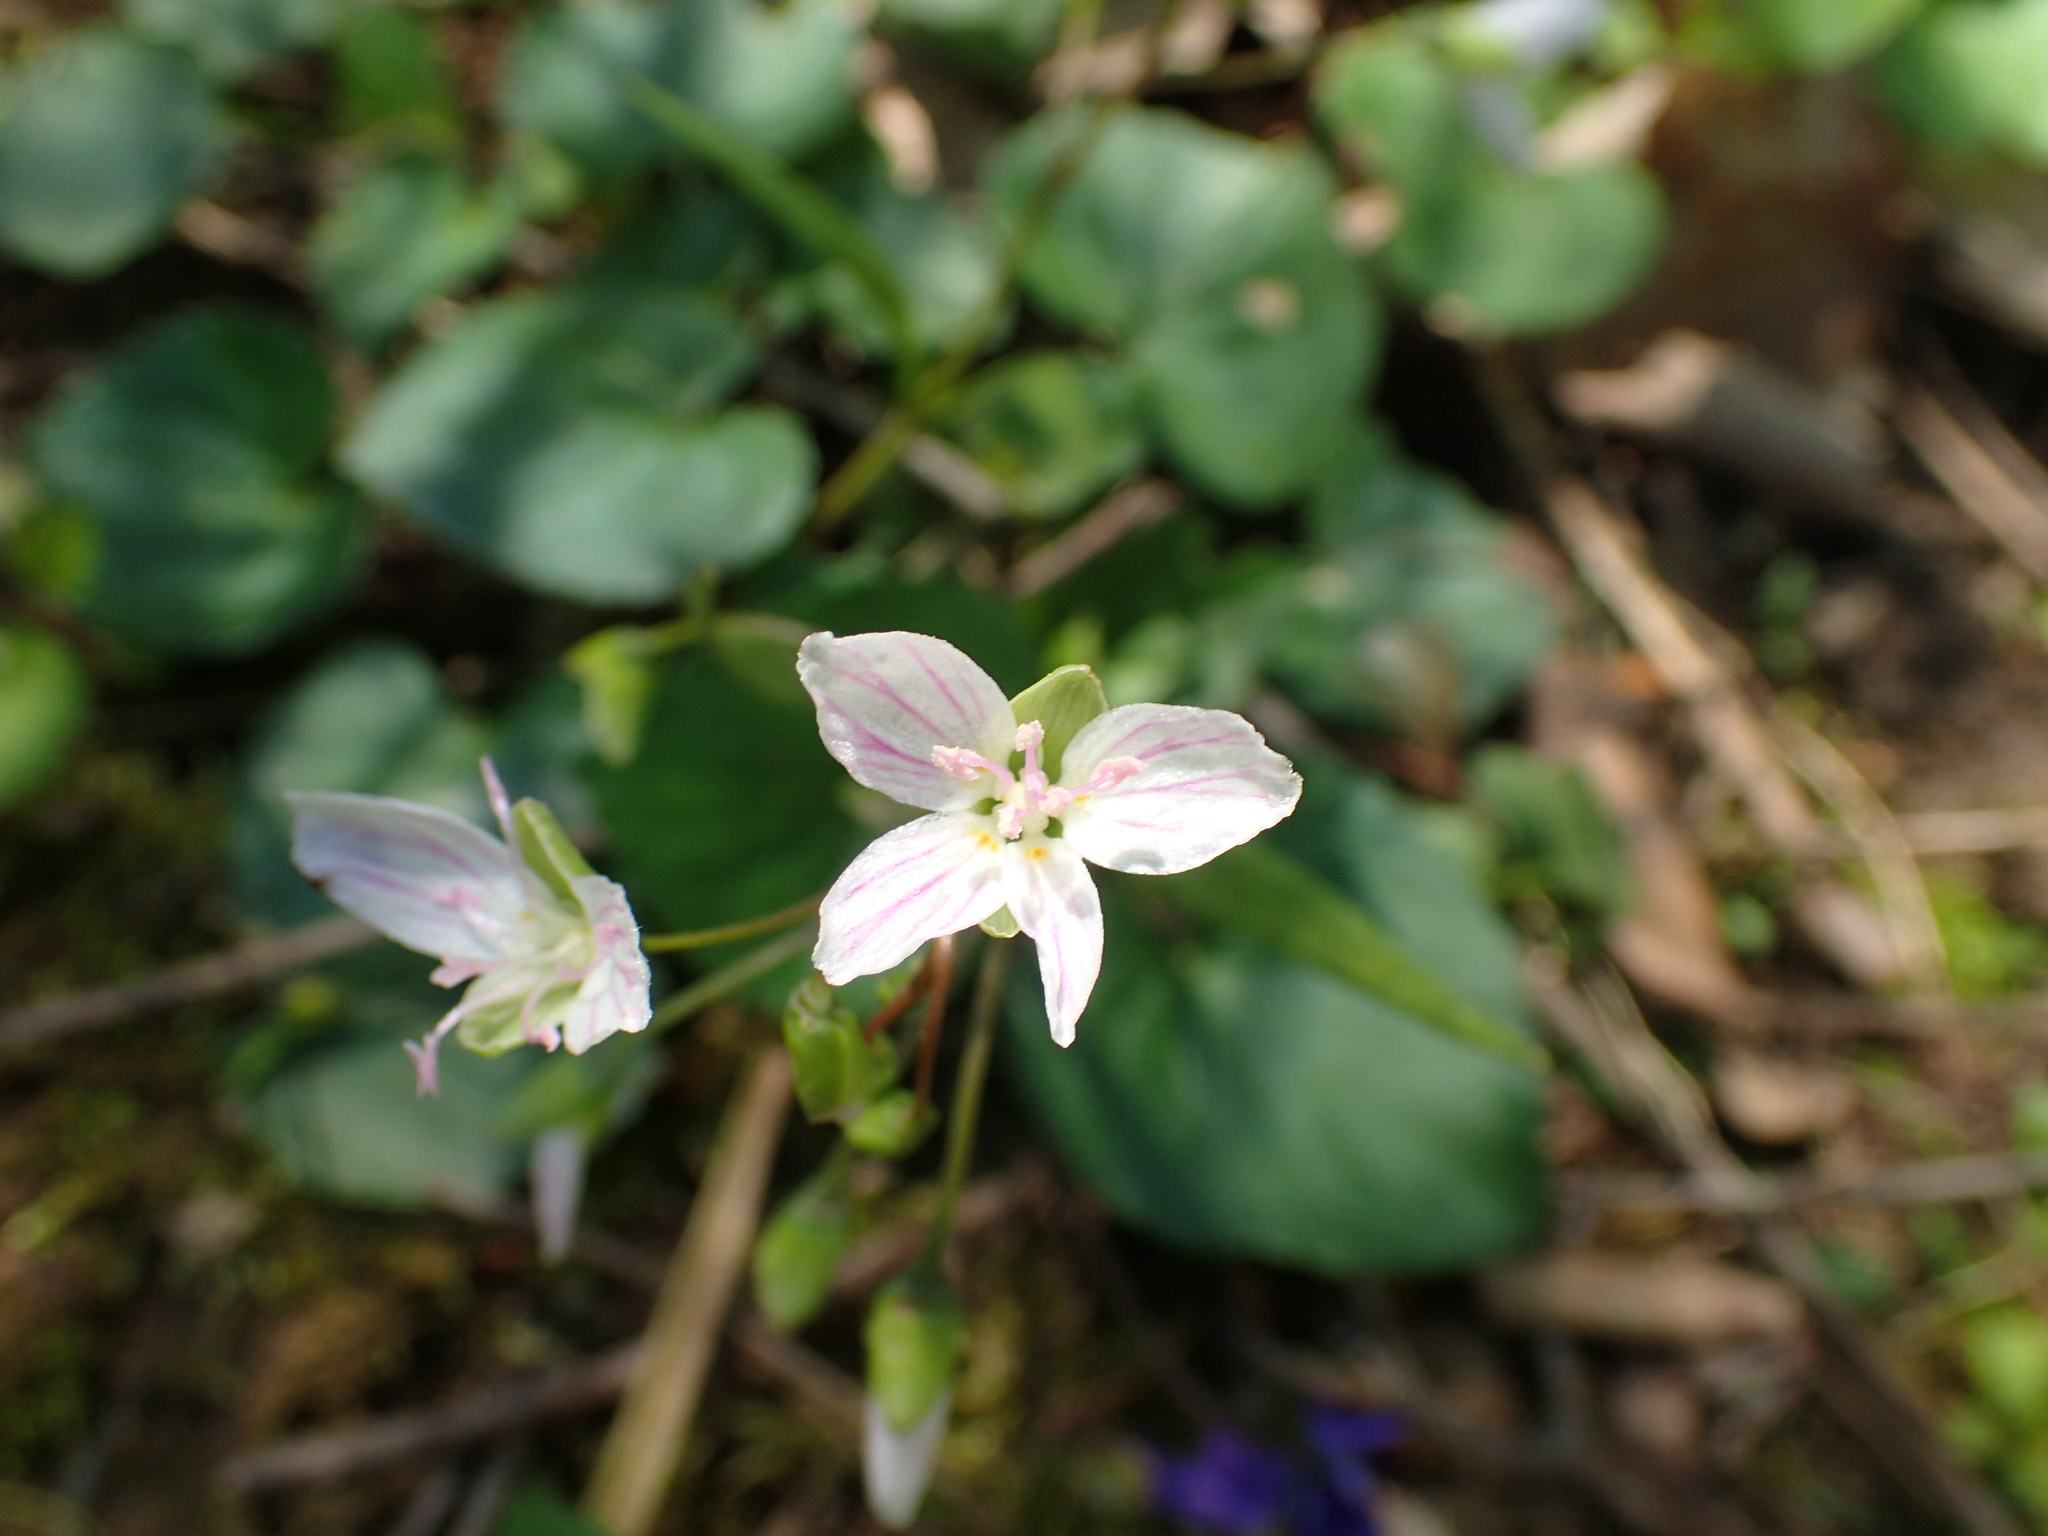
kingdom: Plantae
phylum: Tracheophyta
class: Magnoliopsida
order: Caryophyllales
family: Montiaceae
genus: Claytonia
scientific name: Claytonia virginica
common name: Virginia springbeauty
